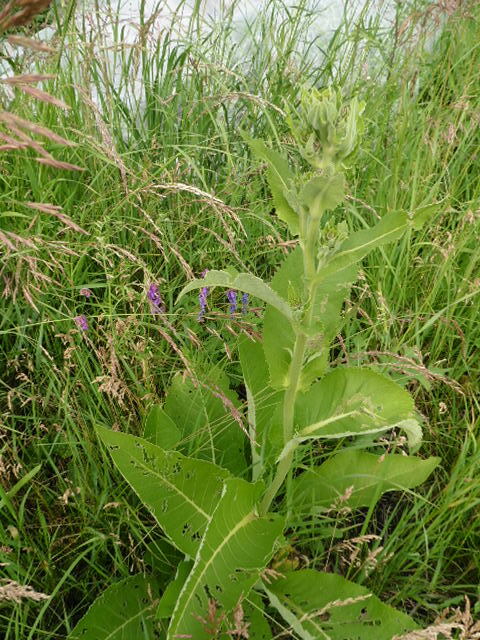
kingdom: Plantae
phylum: Tracheophyta
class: Magnoliopsida
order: Asterales
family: Asteraceae
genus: Inula
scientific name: Inula helenium
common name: Elecampane
